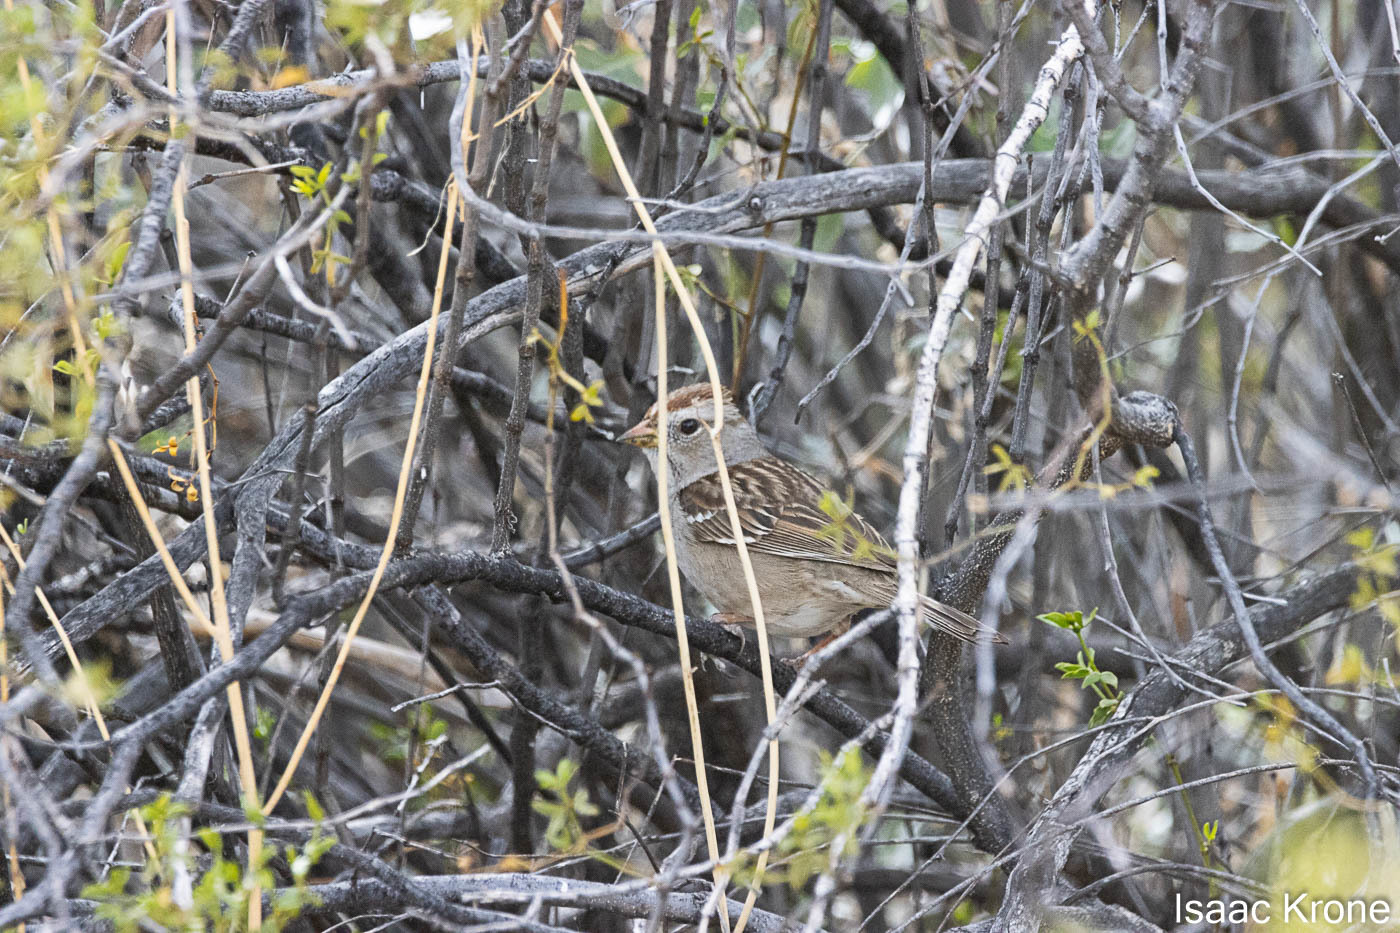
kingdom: Animalia
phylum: Chordata
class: Aves
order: Passeriformes
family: Passerellidae
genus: Zonotrichia
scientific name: Zonotrichia leucophrys
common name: White-crowned sparrow
